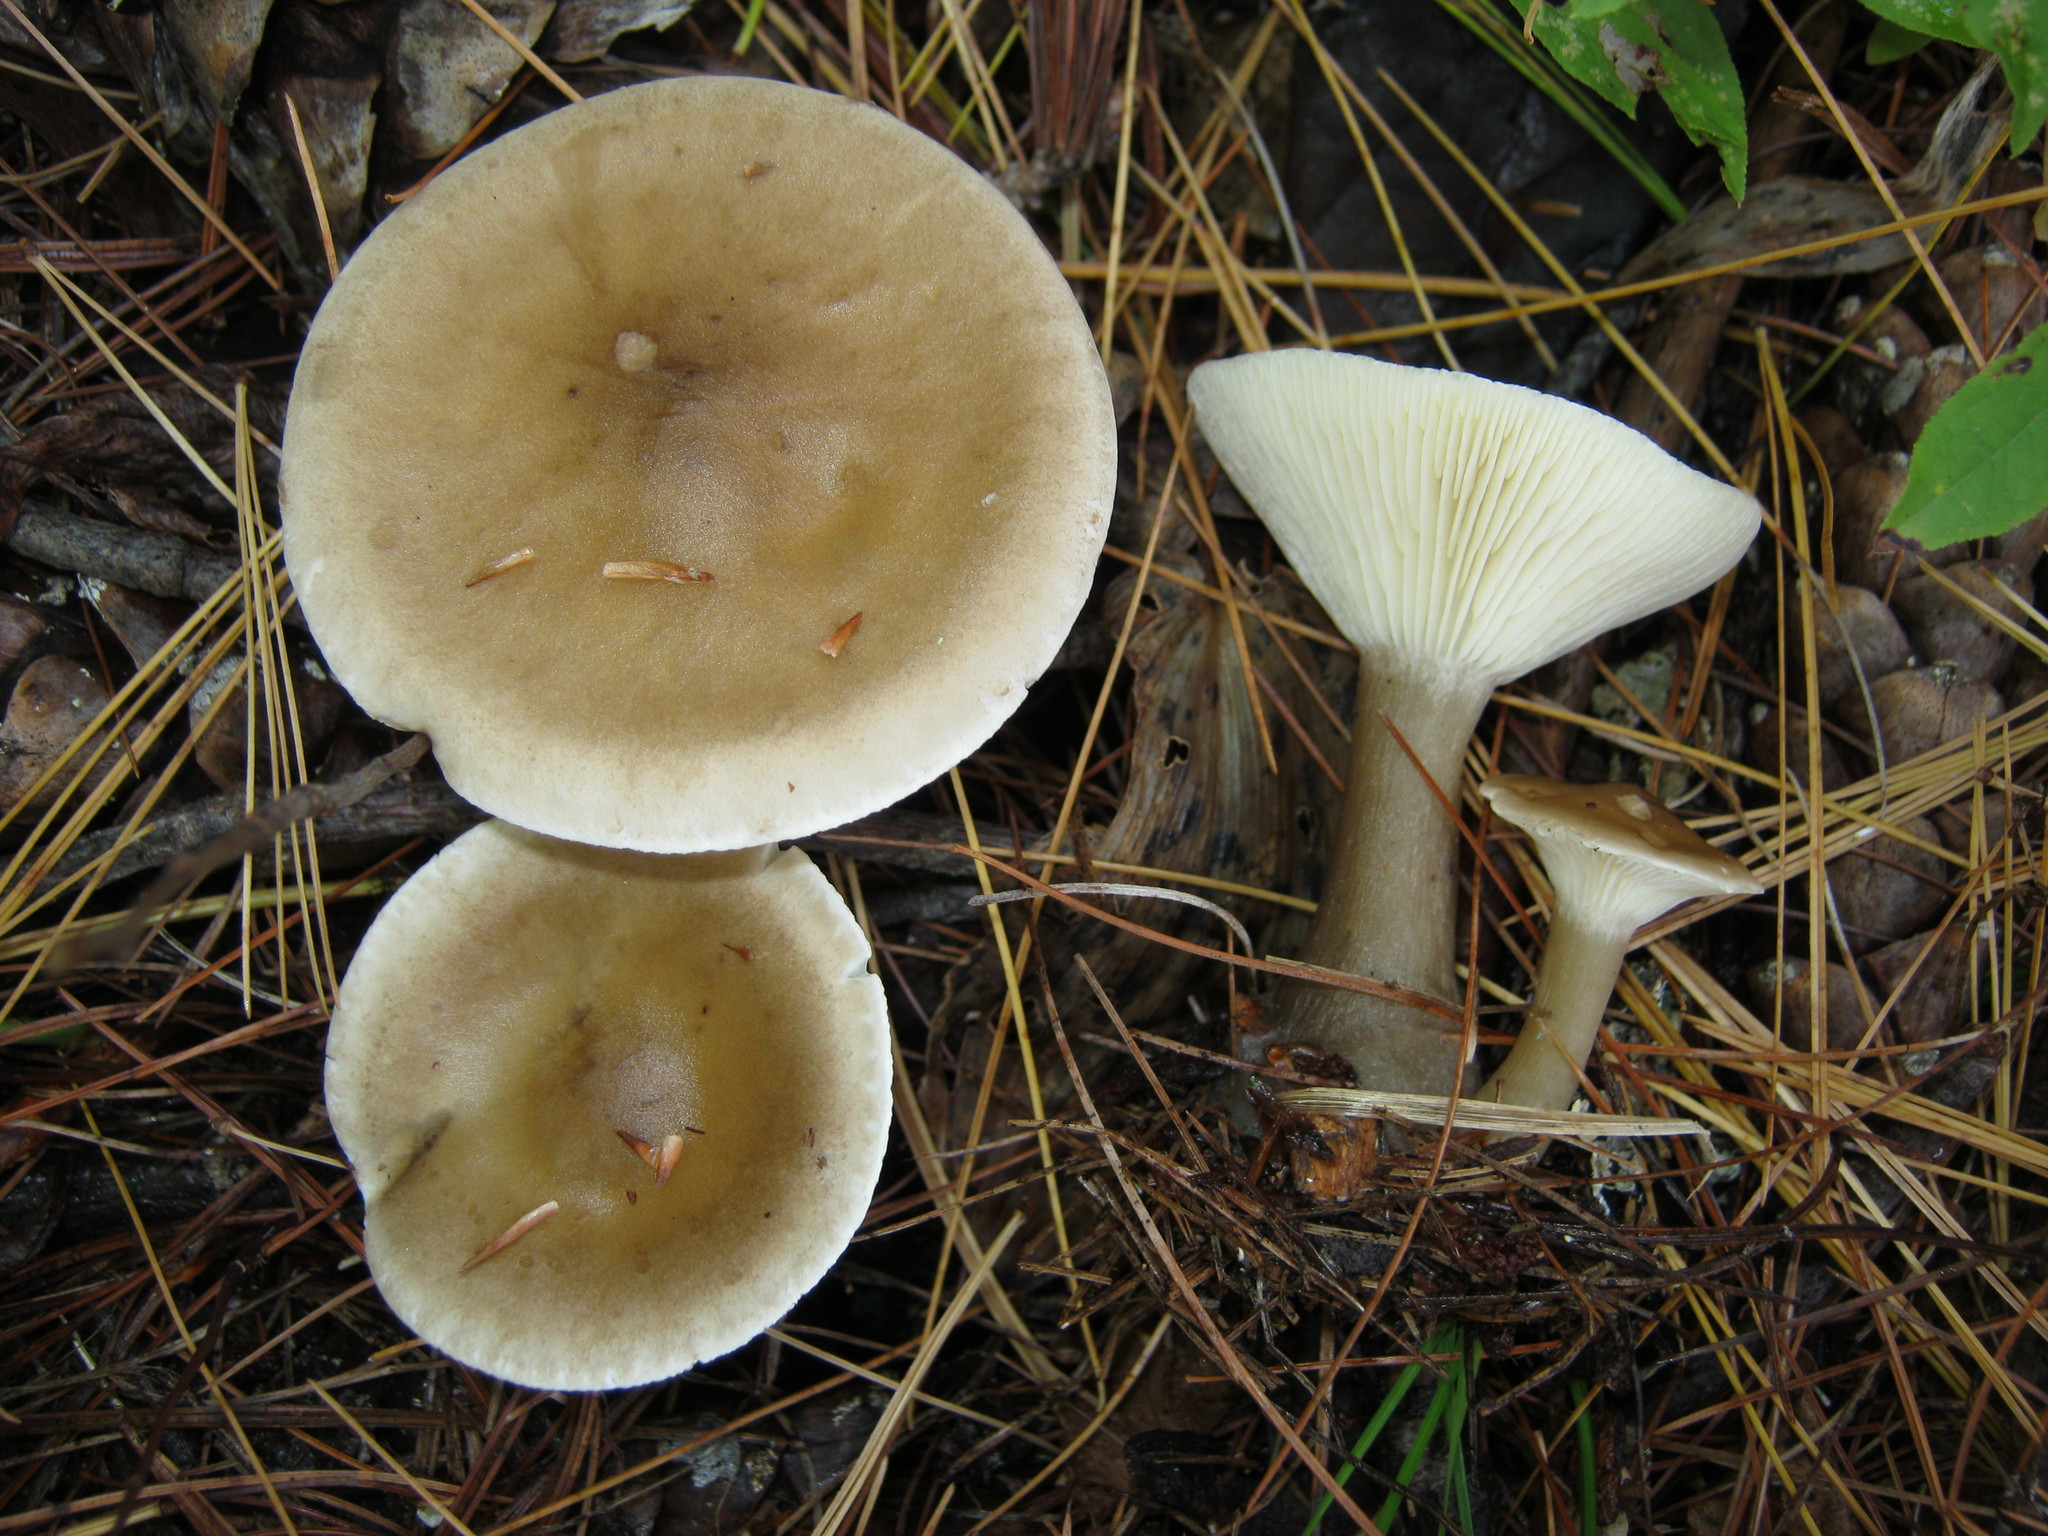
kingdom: Fungi
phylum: Basidiomycota
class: Agaricomycetes
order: Agaricales
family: Hygrophoraceae
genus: Ampulloclitocybe
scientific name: Ampulloclitocybe clavipes
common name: Club foot
